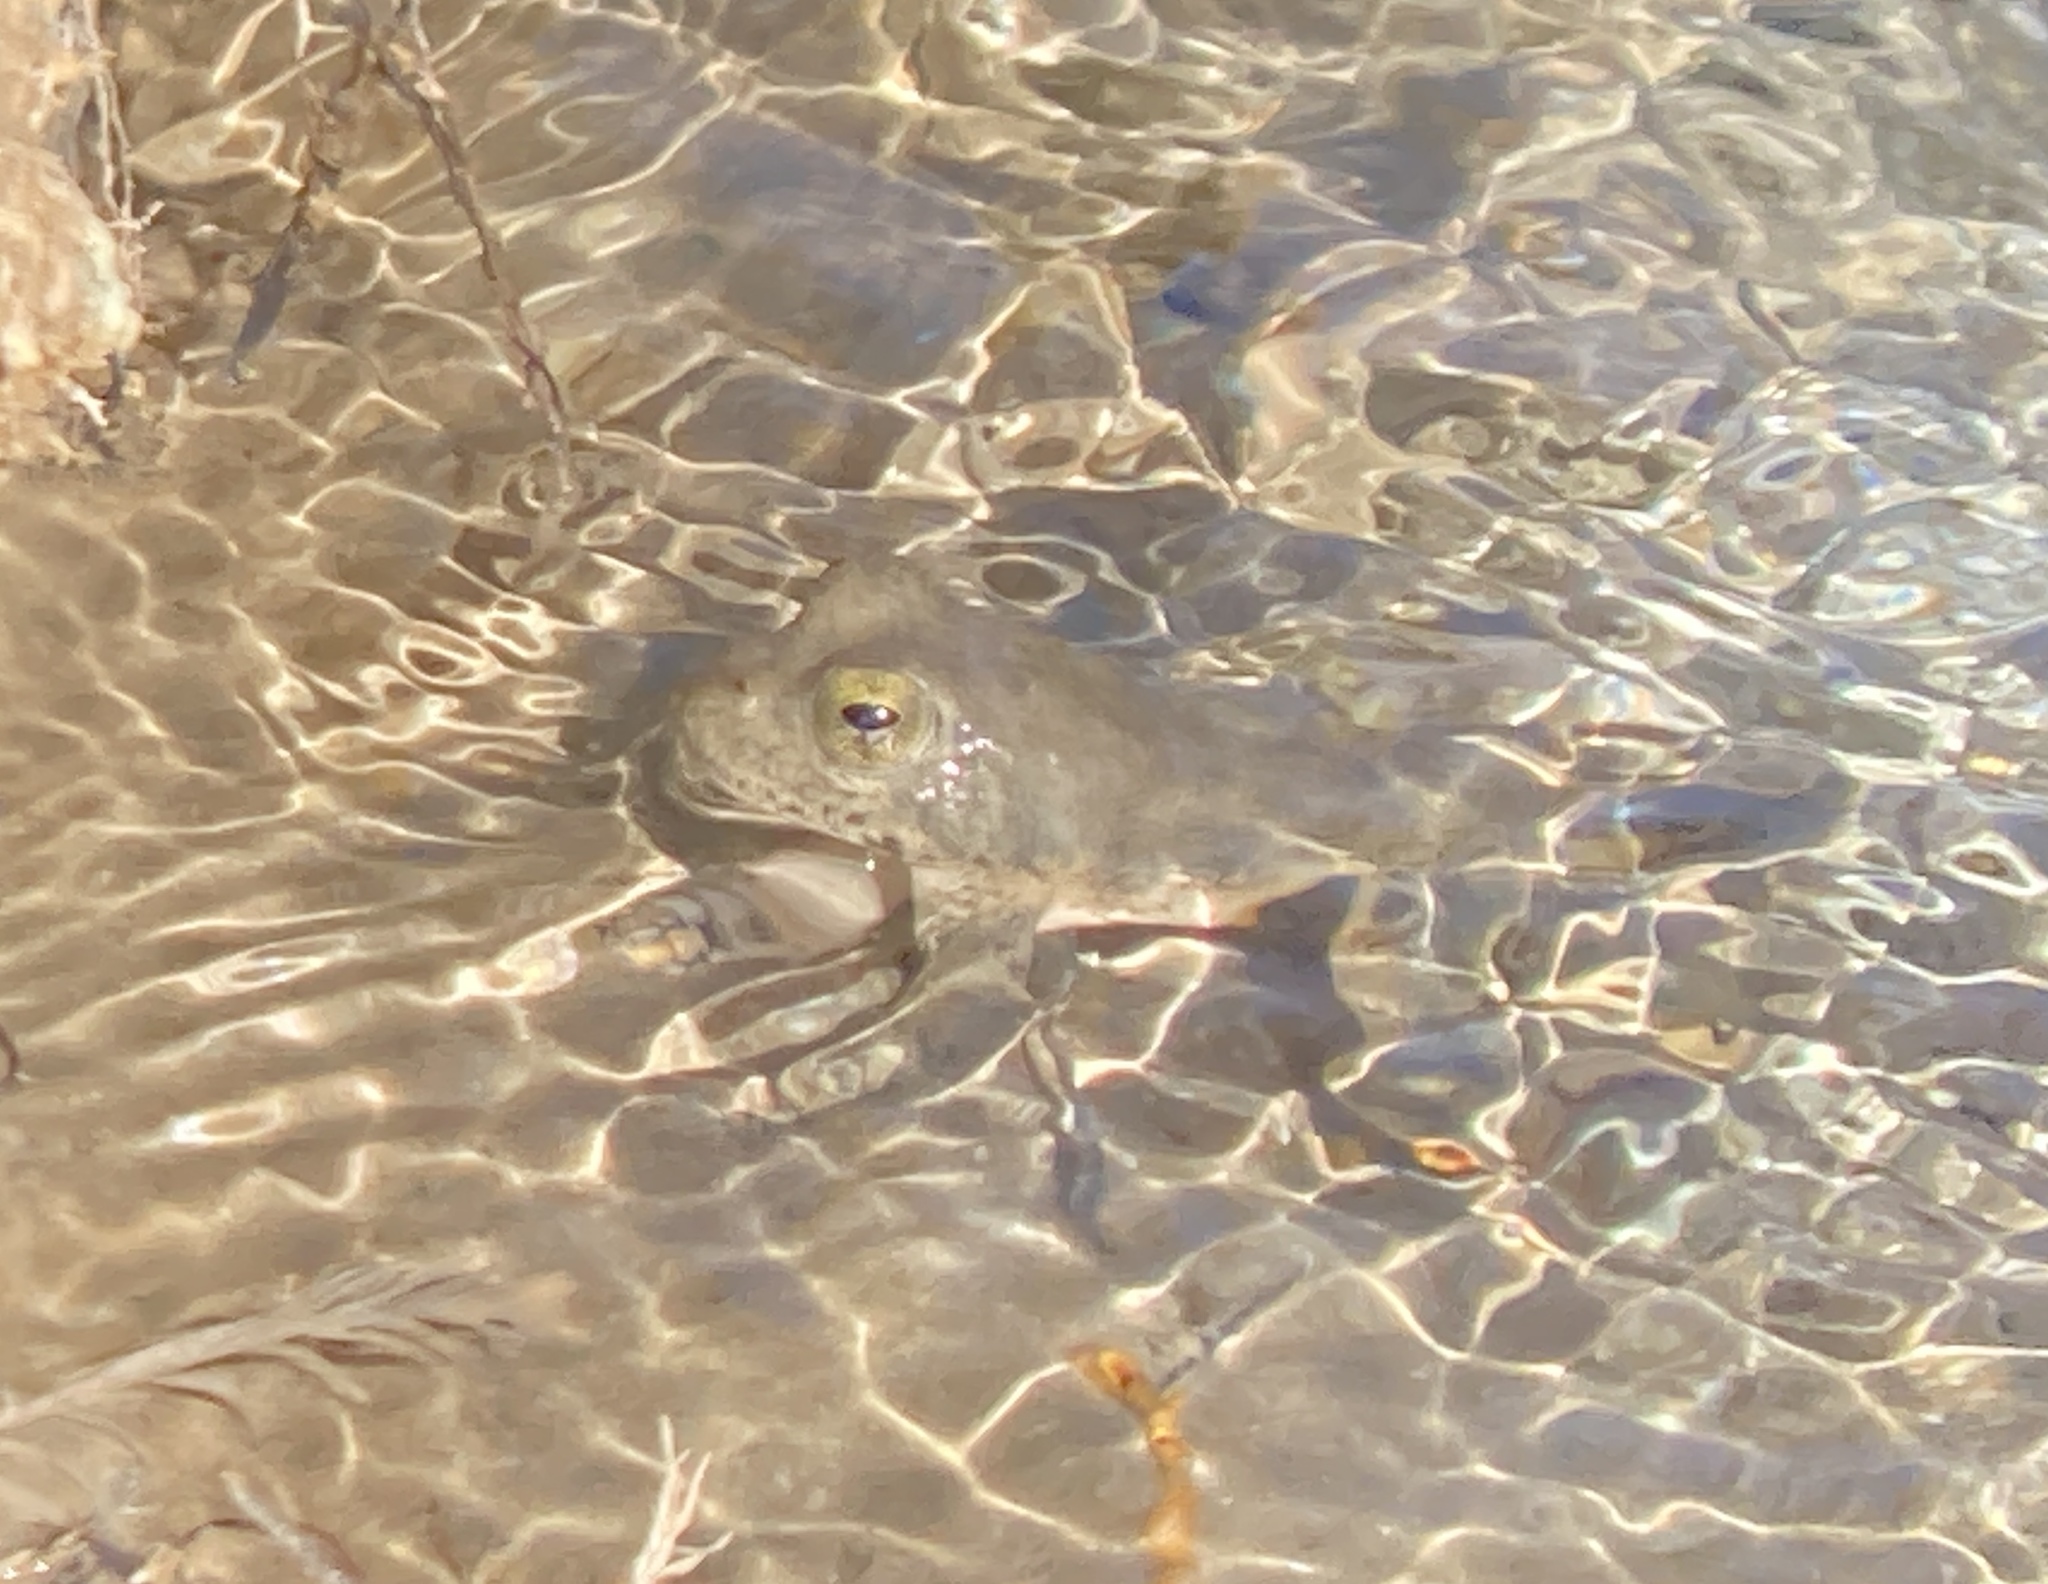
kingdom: Animalia
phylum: Chordata
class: Amphibia
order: Anura
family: Ranidae
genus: Rana
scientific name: Rana boylii
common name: Foothill yellow-legged frog
